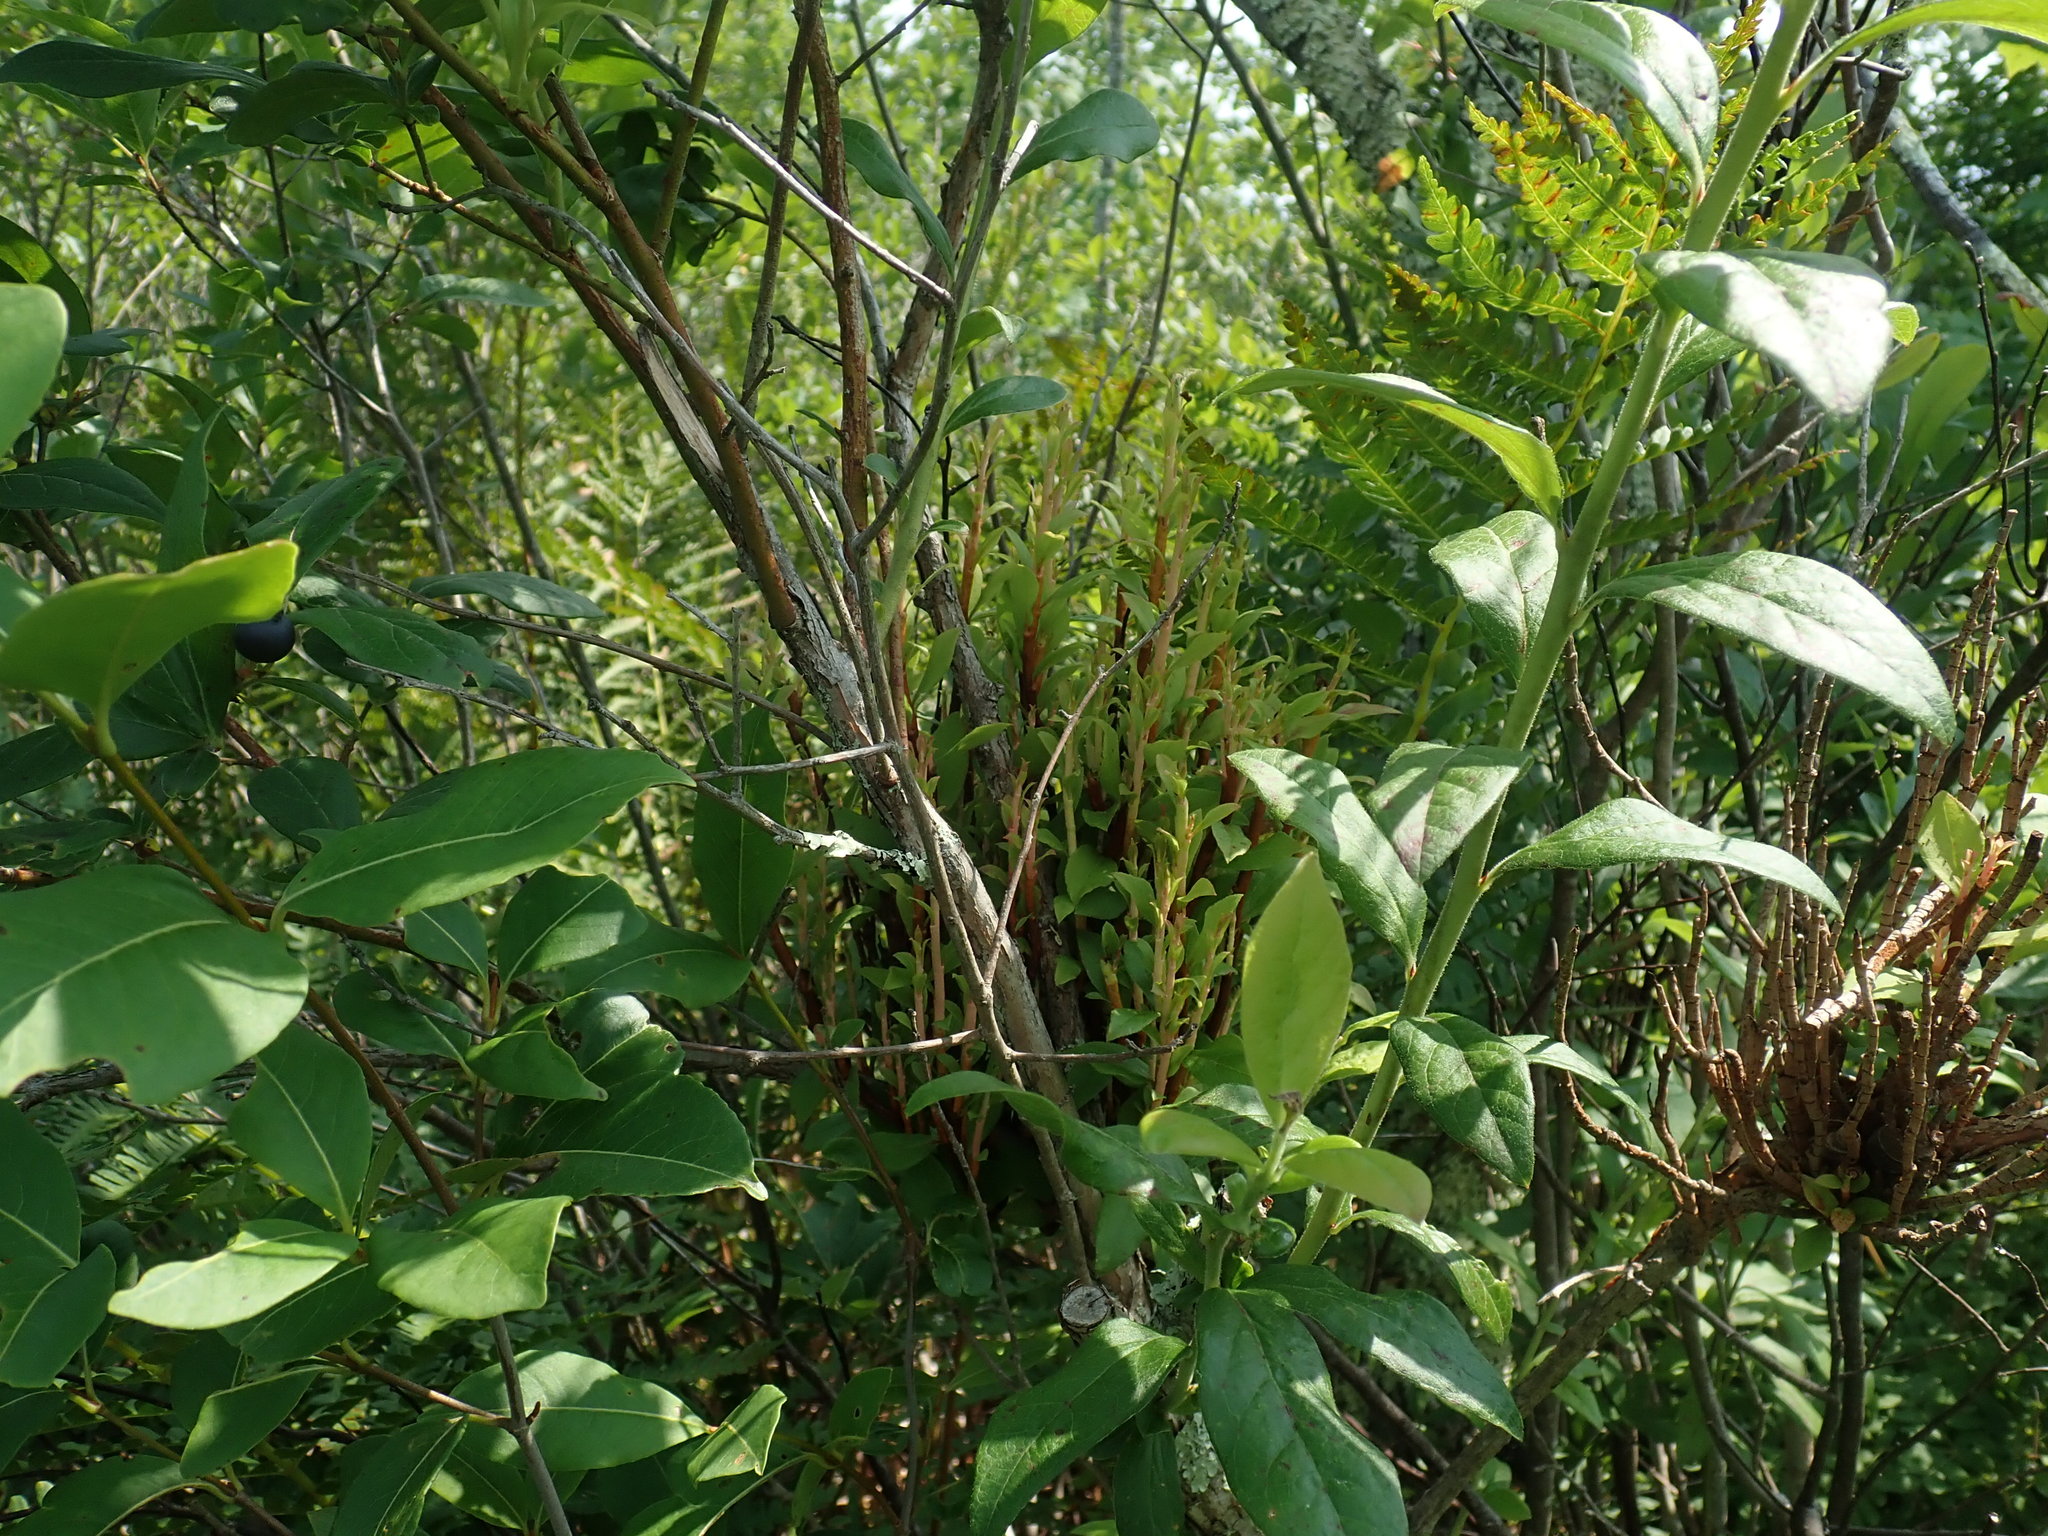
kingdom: Fungi
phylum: Basidiomycota
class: Pucciniomycetes
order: Pucciniales
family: Pucciniastraceae
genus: Calyptospora
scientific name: Calyptospora columnaris
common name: Huckleberry broom rust fungus
